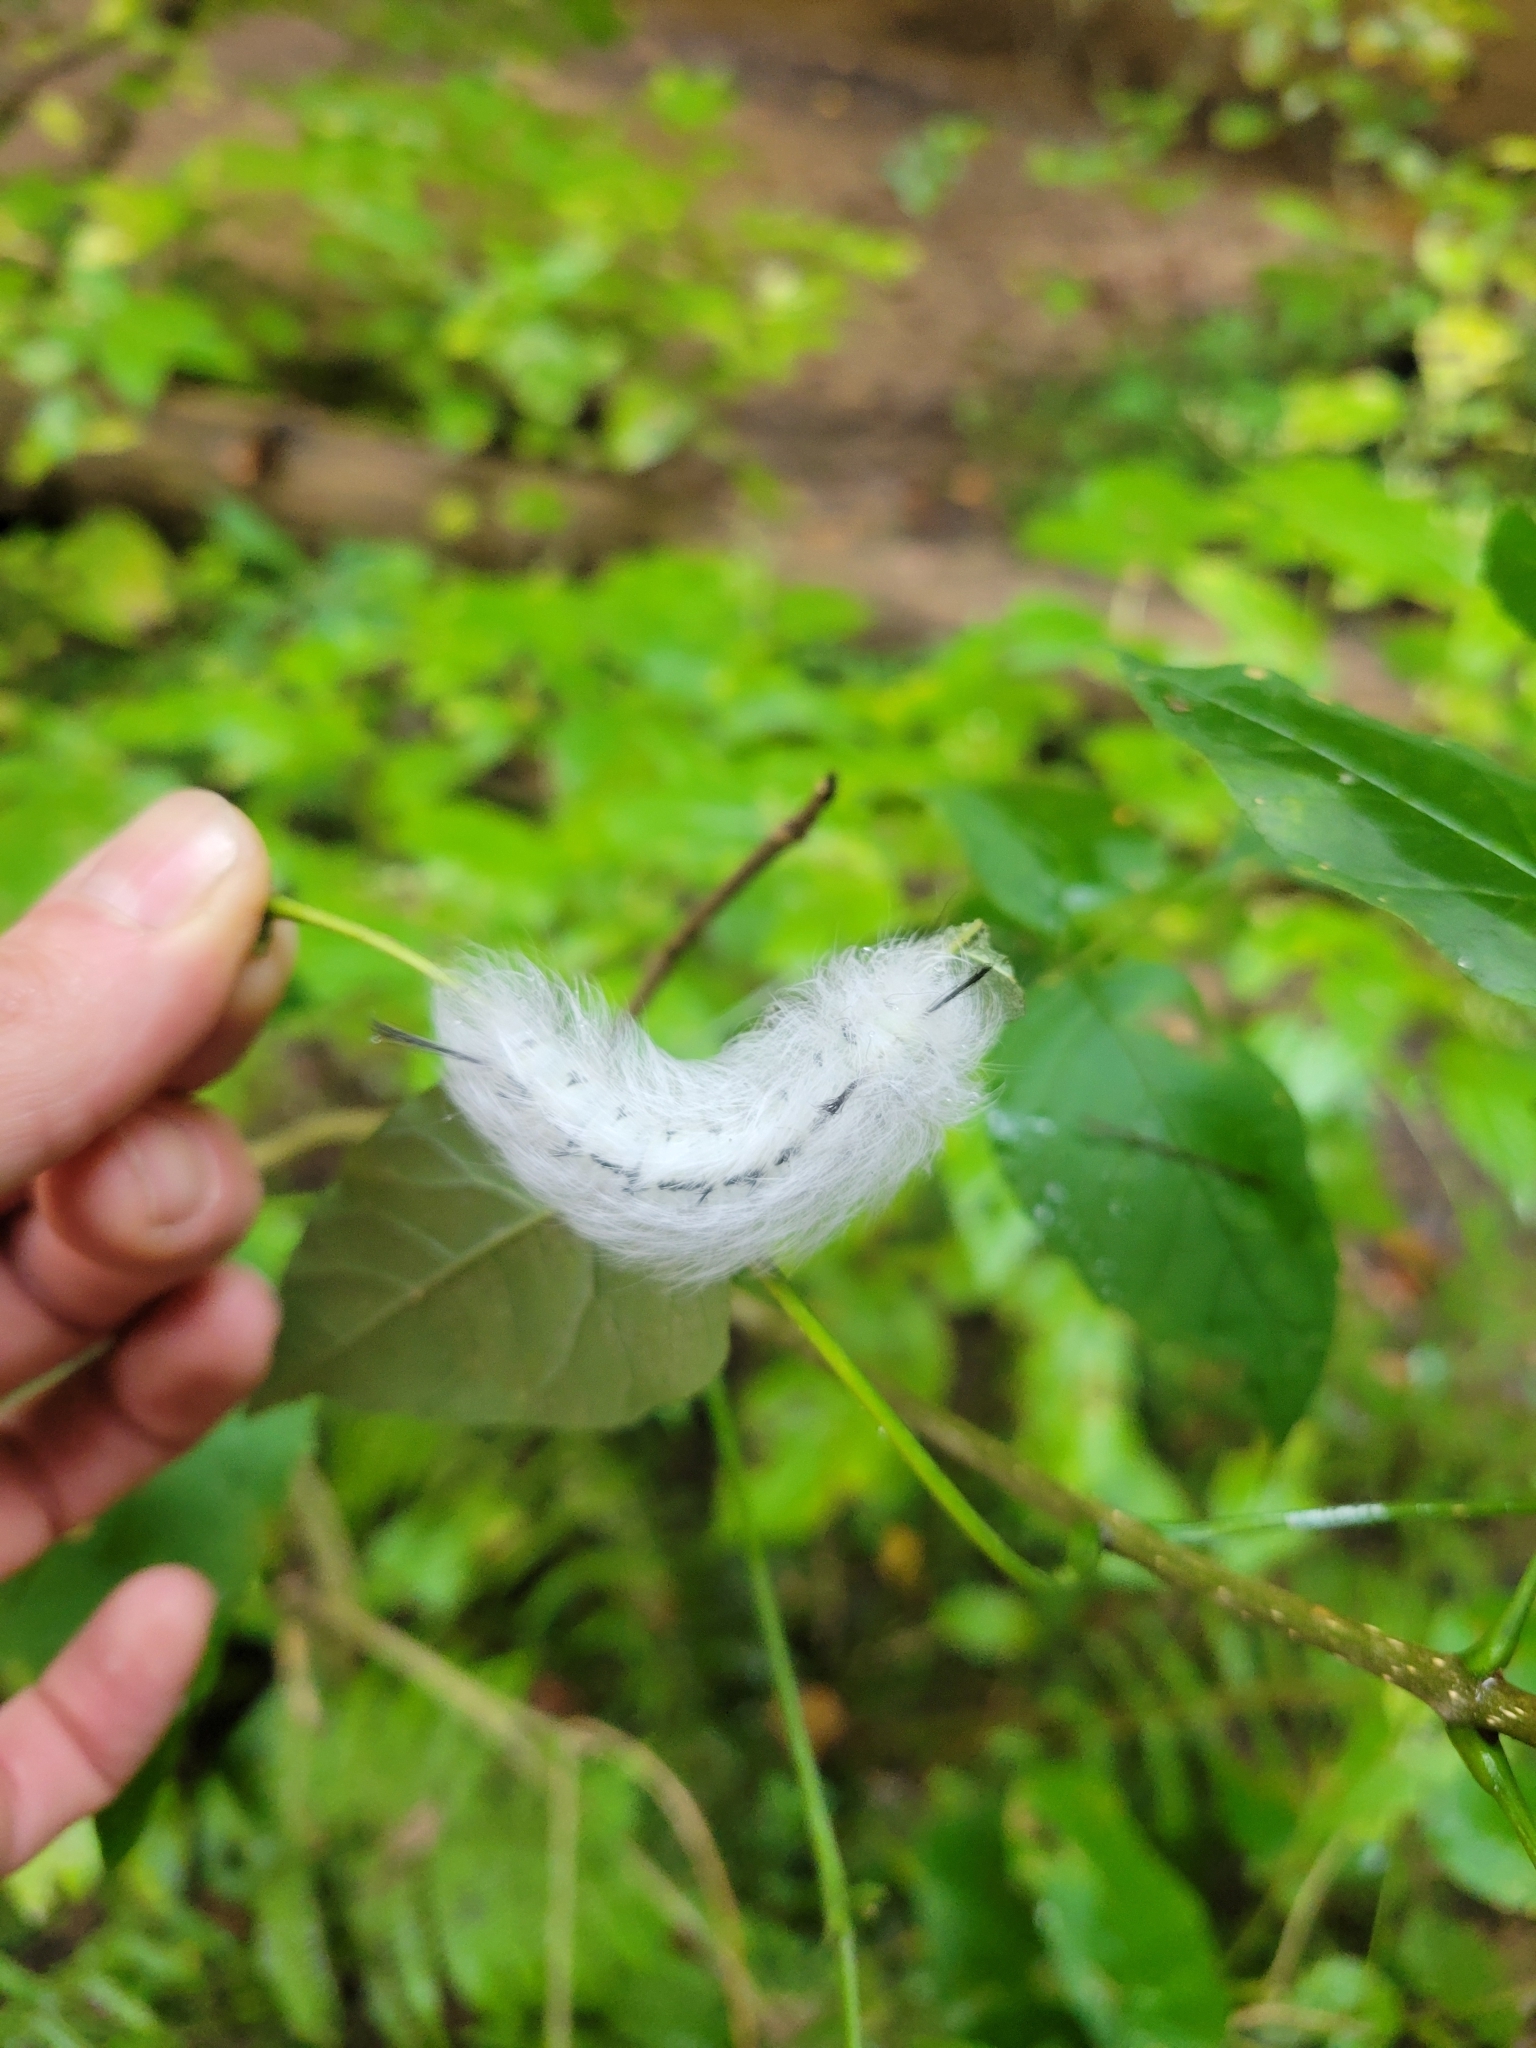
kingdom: Animalia
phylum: Arthropoda
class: Insecta
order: Lepidoptera
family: Apatelodidae
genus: Hygrochroa
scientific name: Hygrochroa Apatelodes torrefacta
